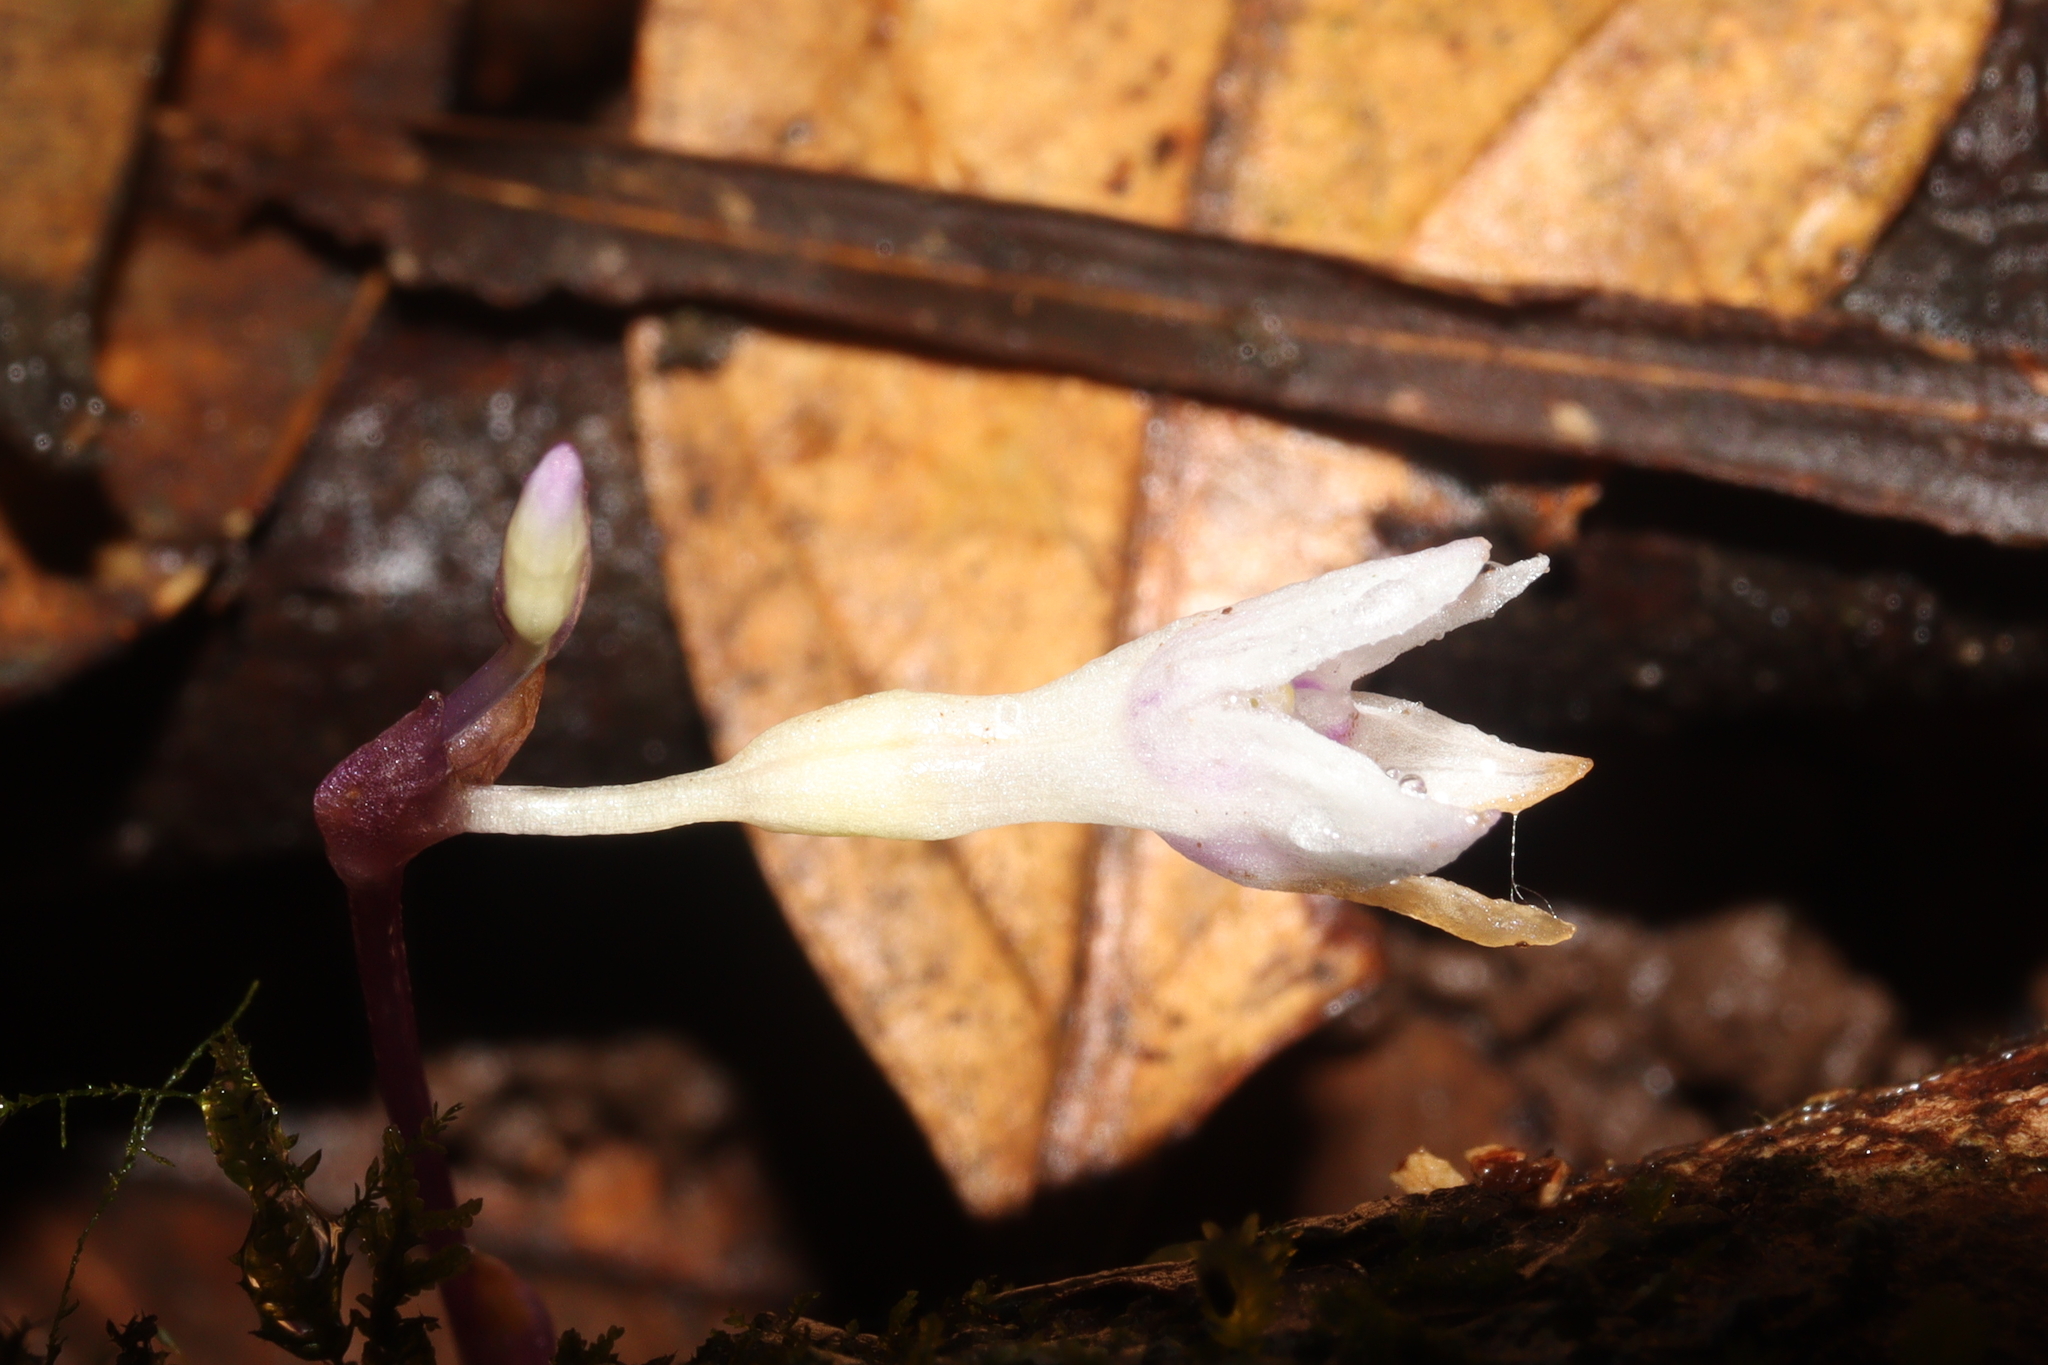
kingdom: Plantae
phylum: Tracheophyta
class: Liliopsida
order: Dioscoreales
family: Burmanniaceae
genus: Apteria
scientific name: Apteria aphylla
